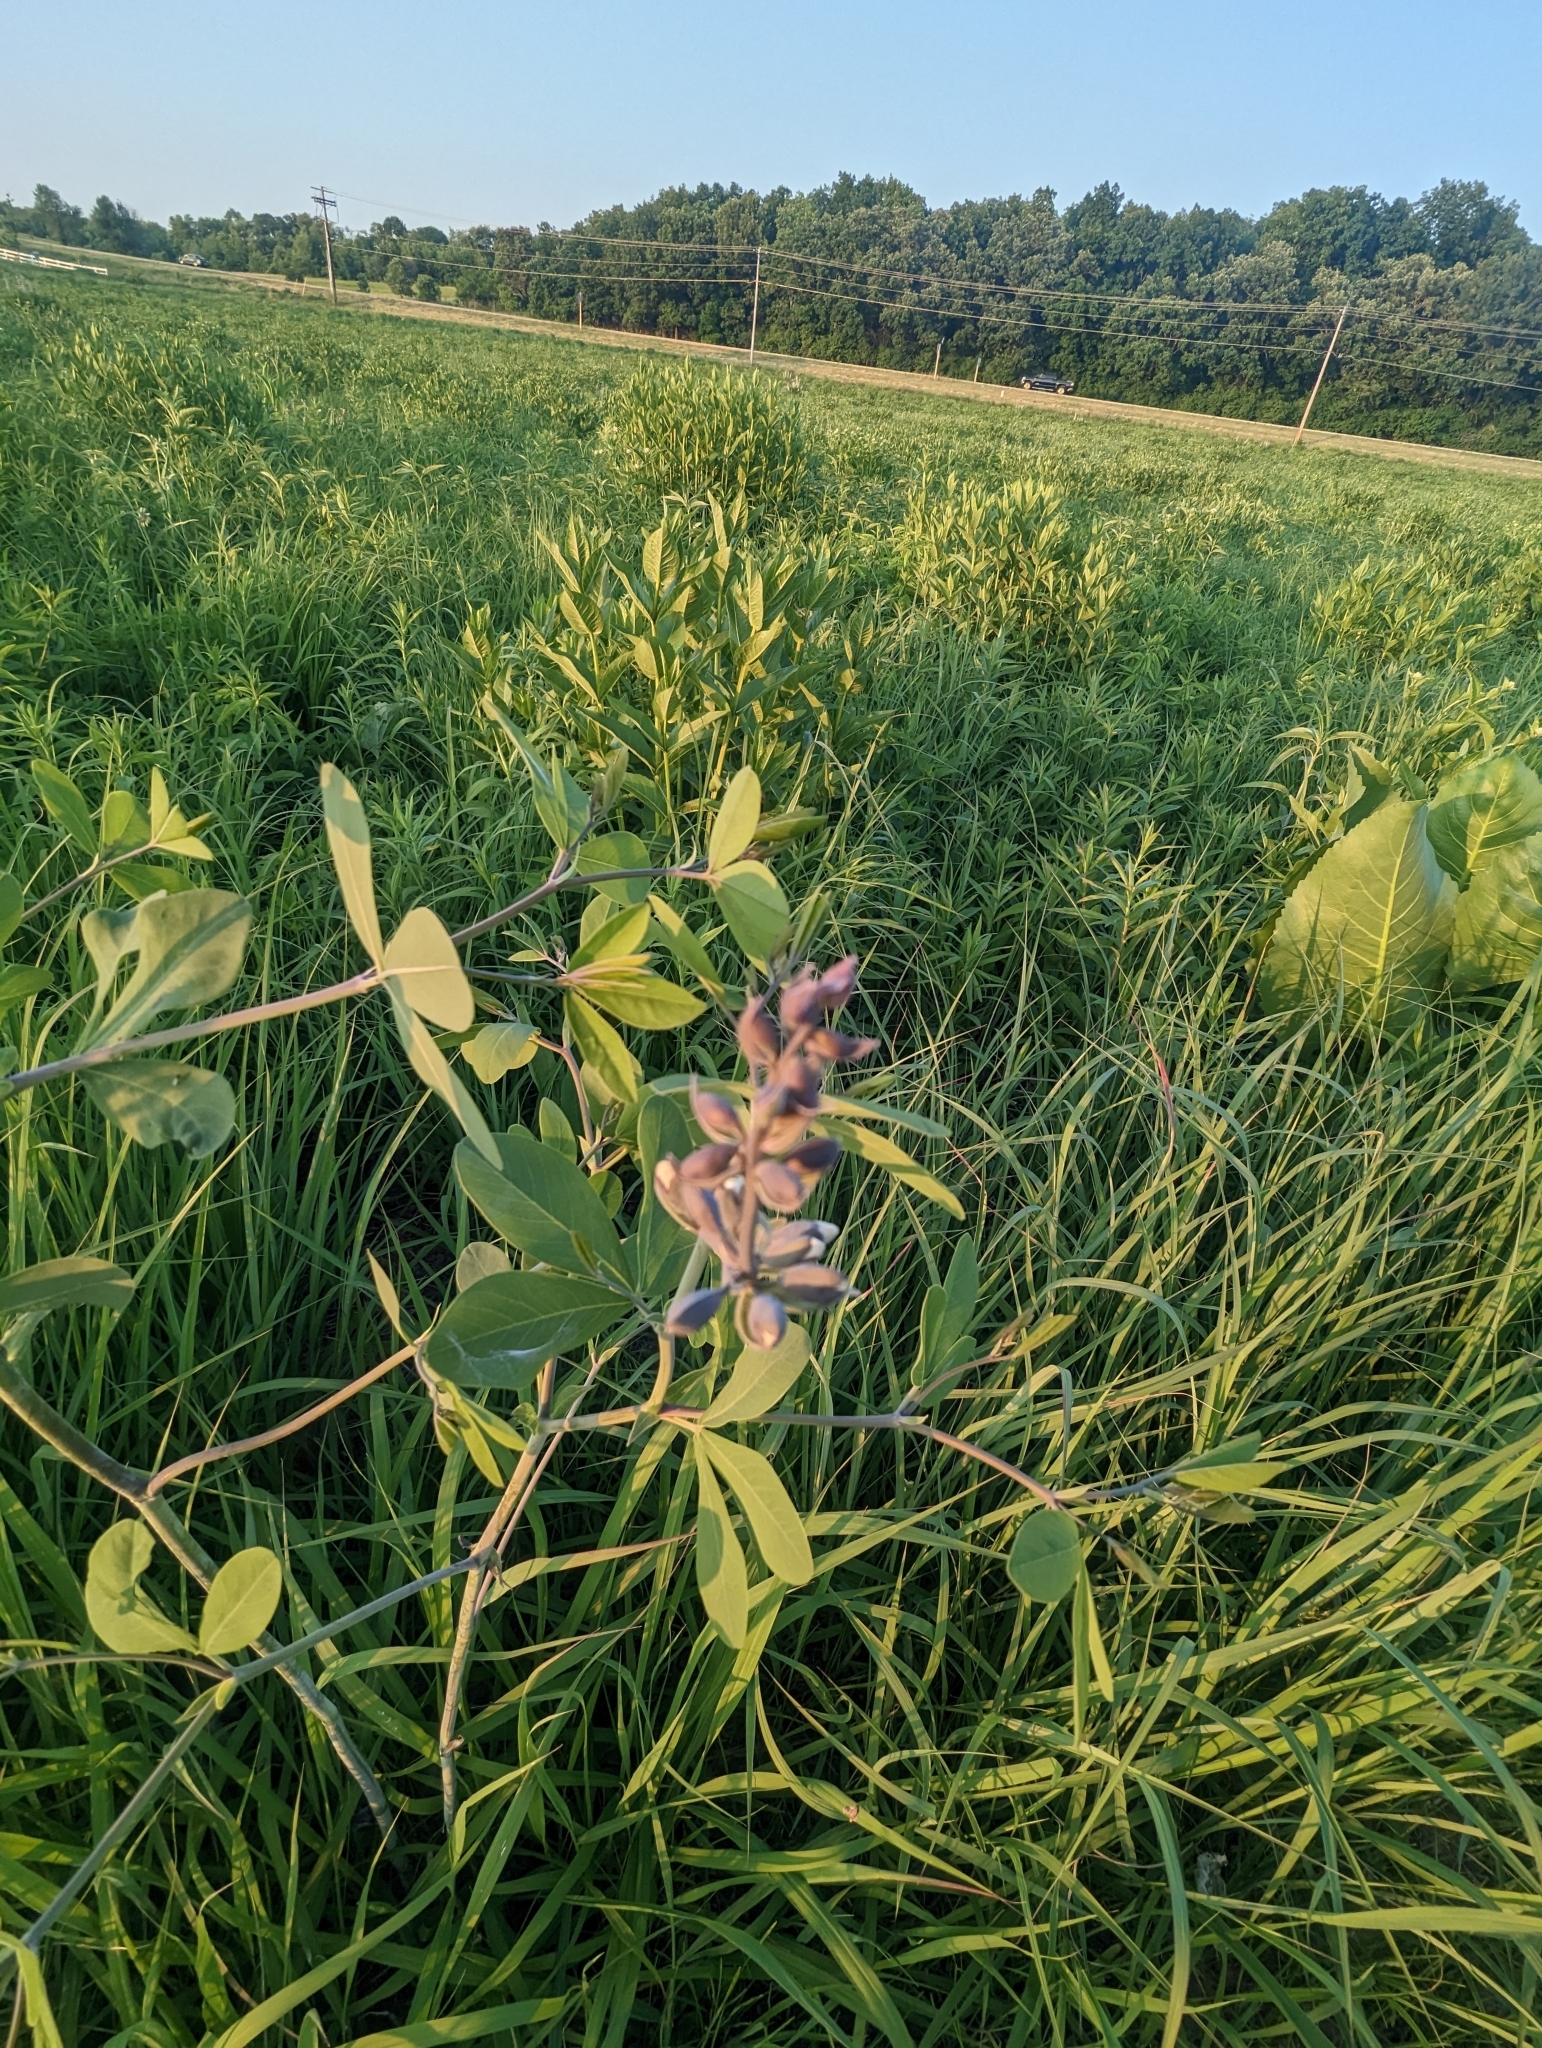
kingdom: Plantae
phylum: Tracheophyta
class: Magnoliopsida
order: Fabales
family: Fabaceae
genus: Baptisia
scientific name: Baptisia alba
